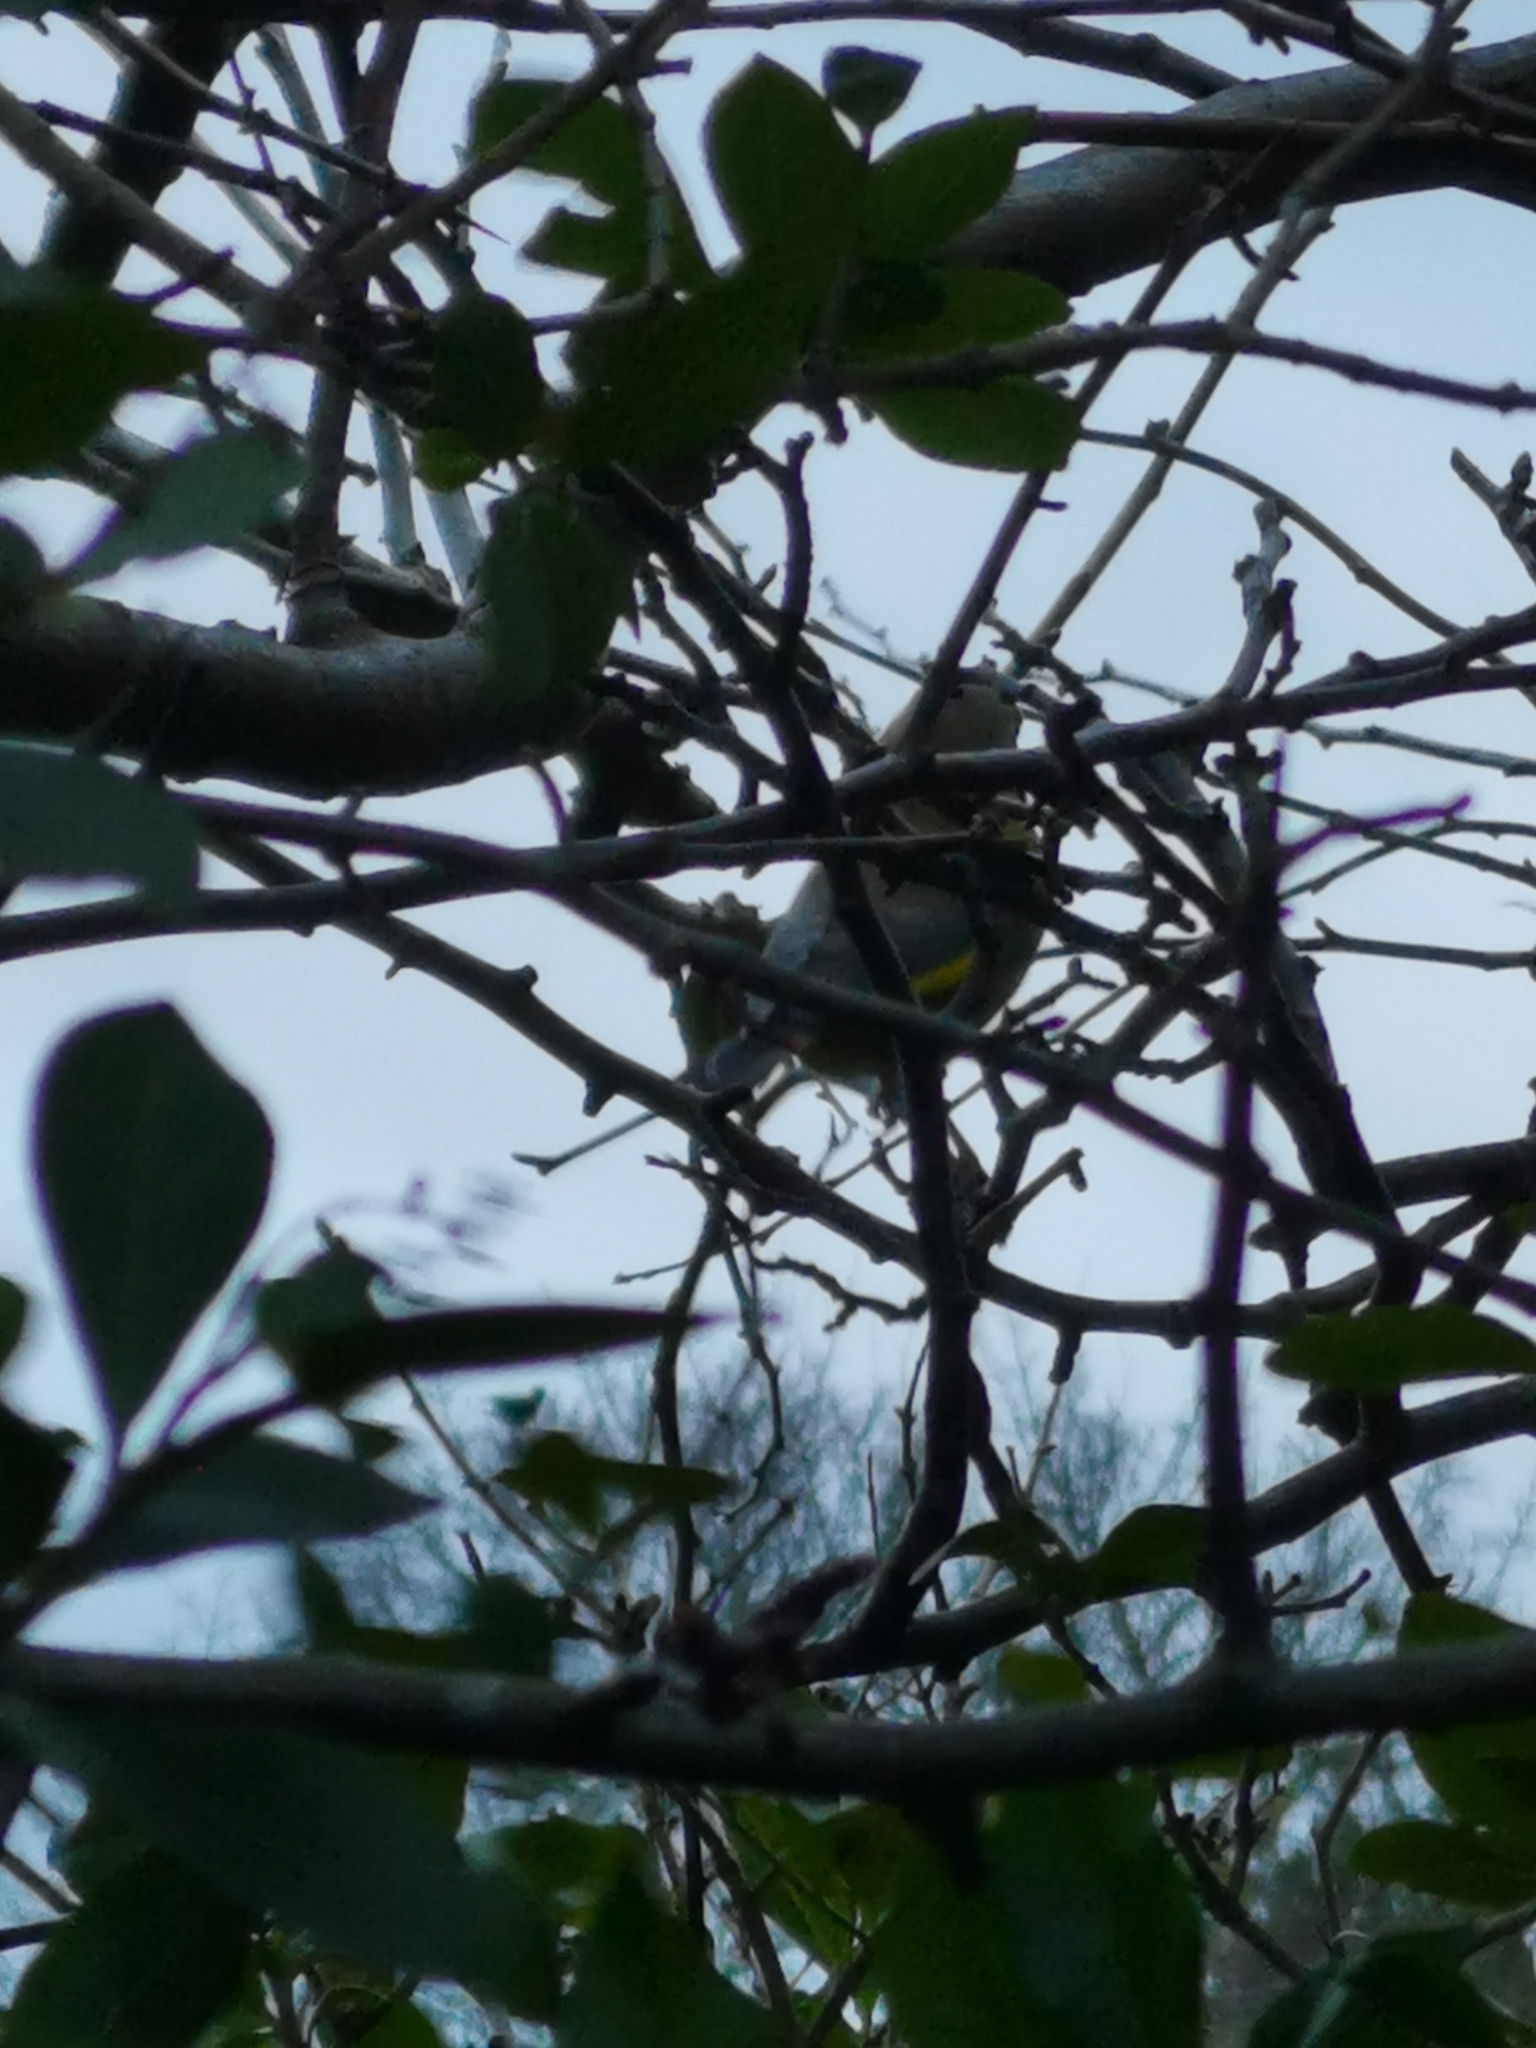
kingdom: Plantae
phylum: Tracheophyta
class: Liliopsida
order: Poales
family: Poaceae
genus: Chloris
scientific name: Chloris chloris
